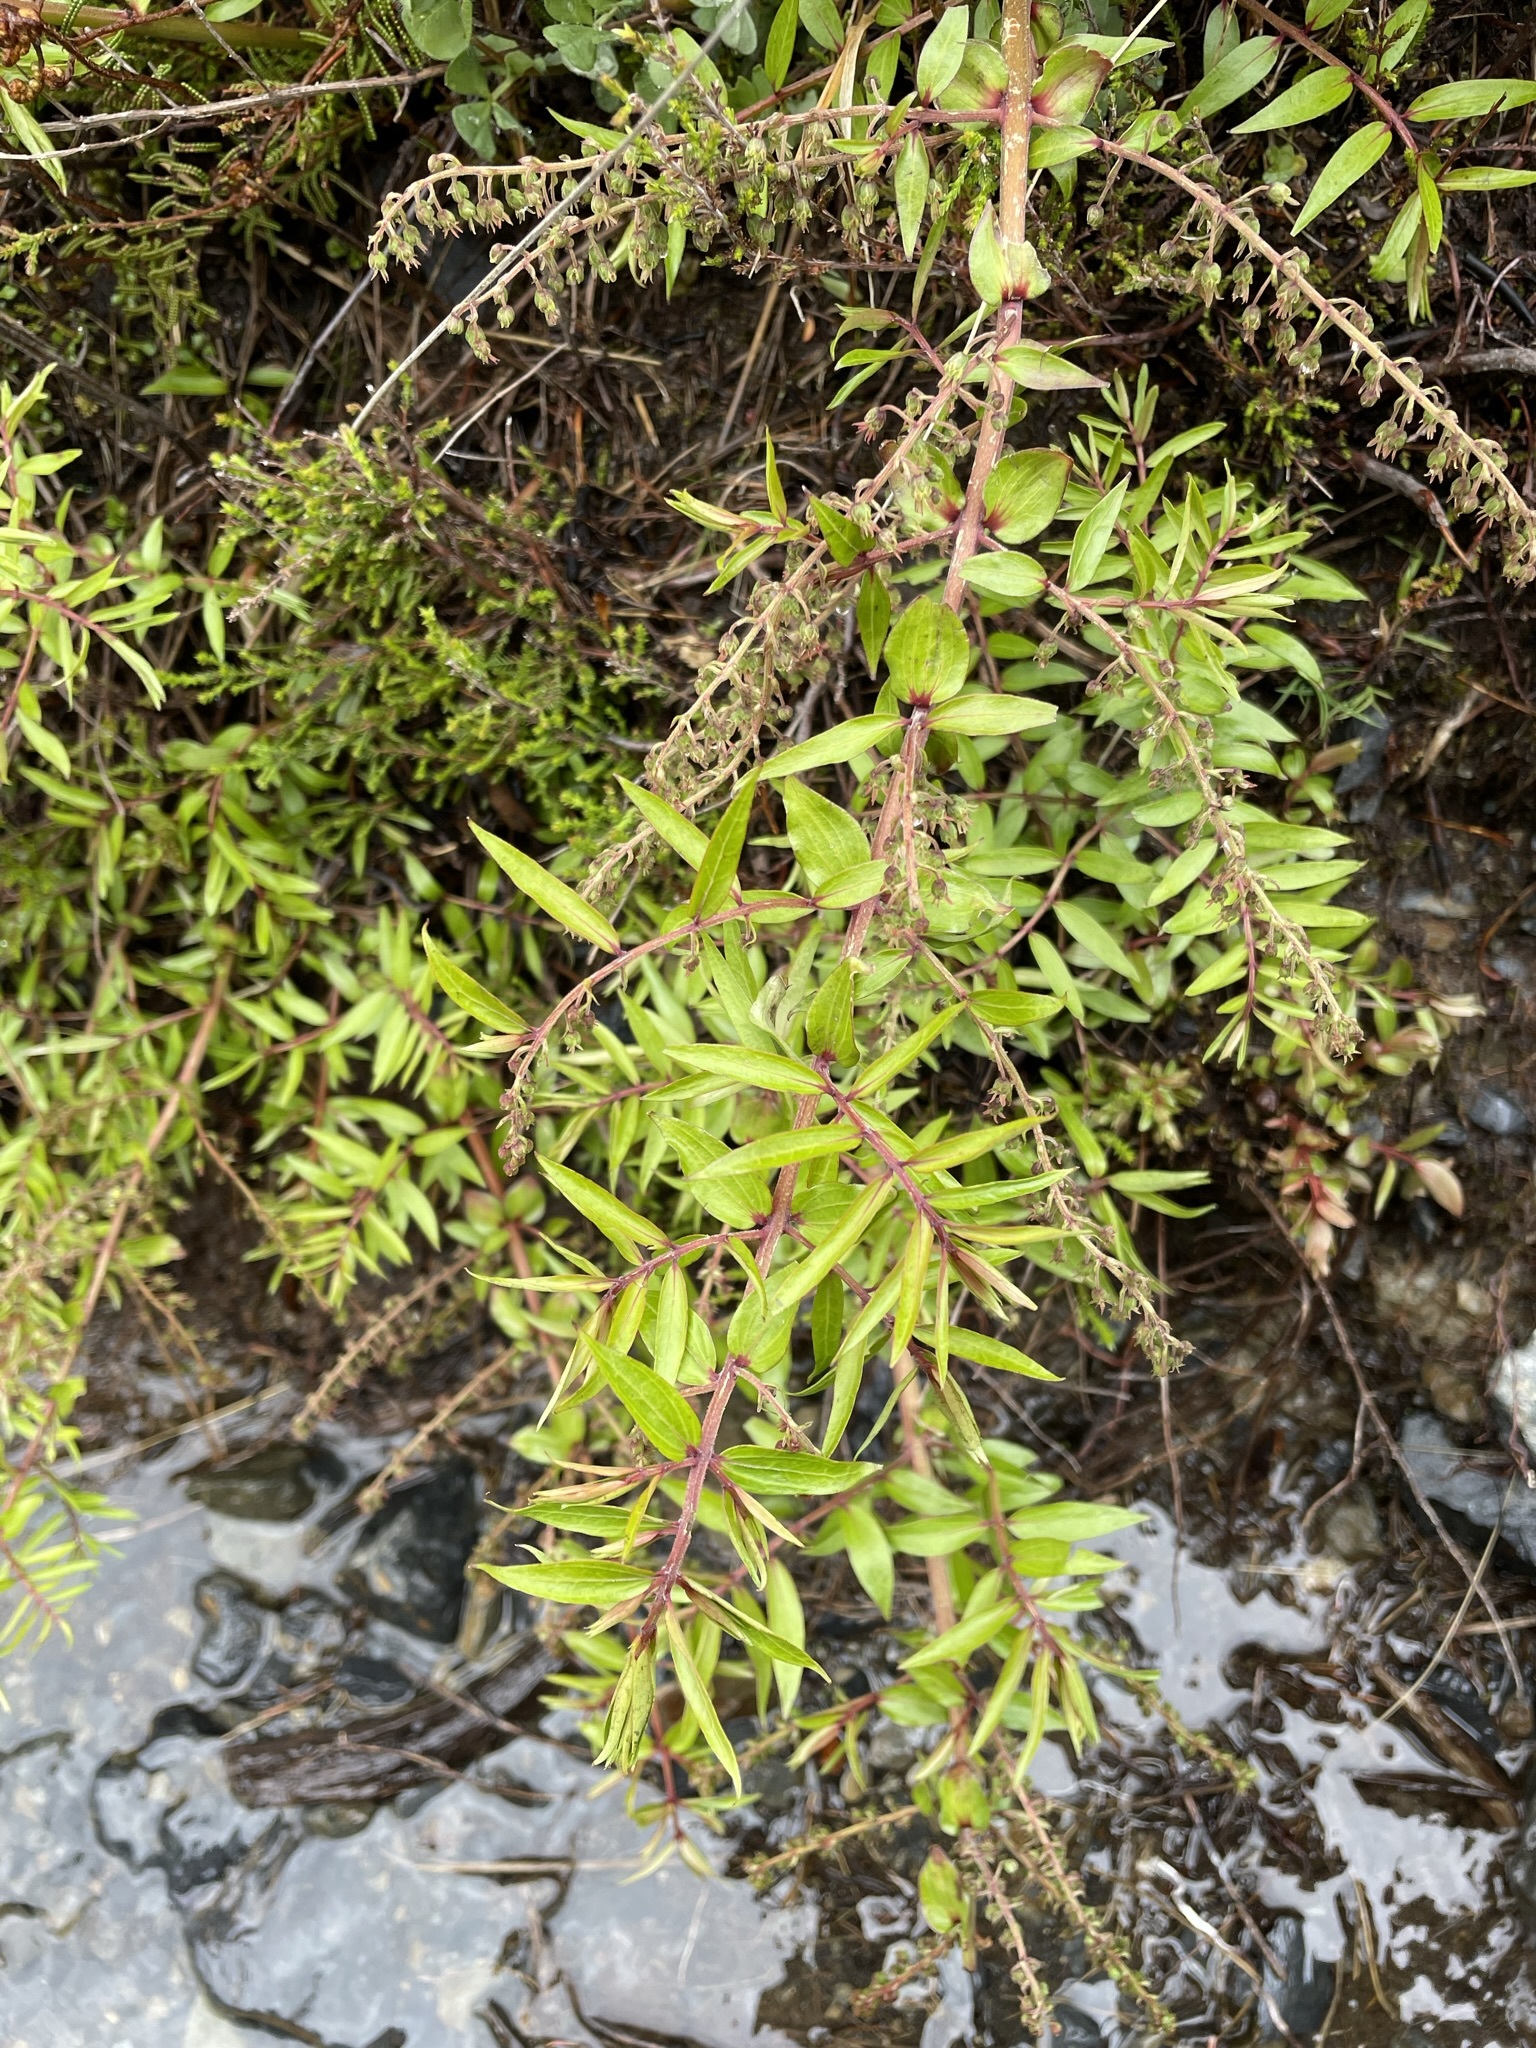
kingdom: Plantae
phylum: Tracheophyta
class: Magnoliopsida
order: Cucurbitales
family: Coriariaceae
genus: Coriaria
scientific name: Coriaria pteridoides
